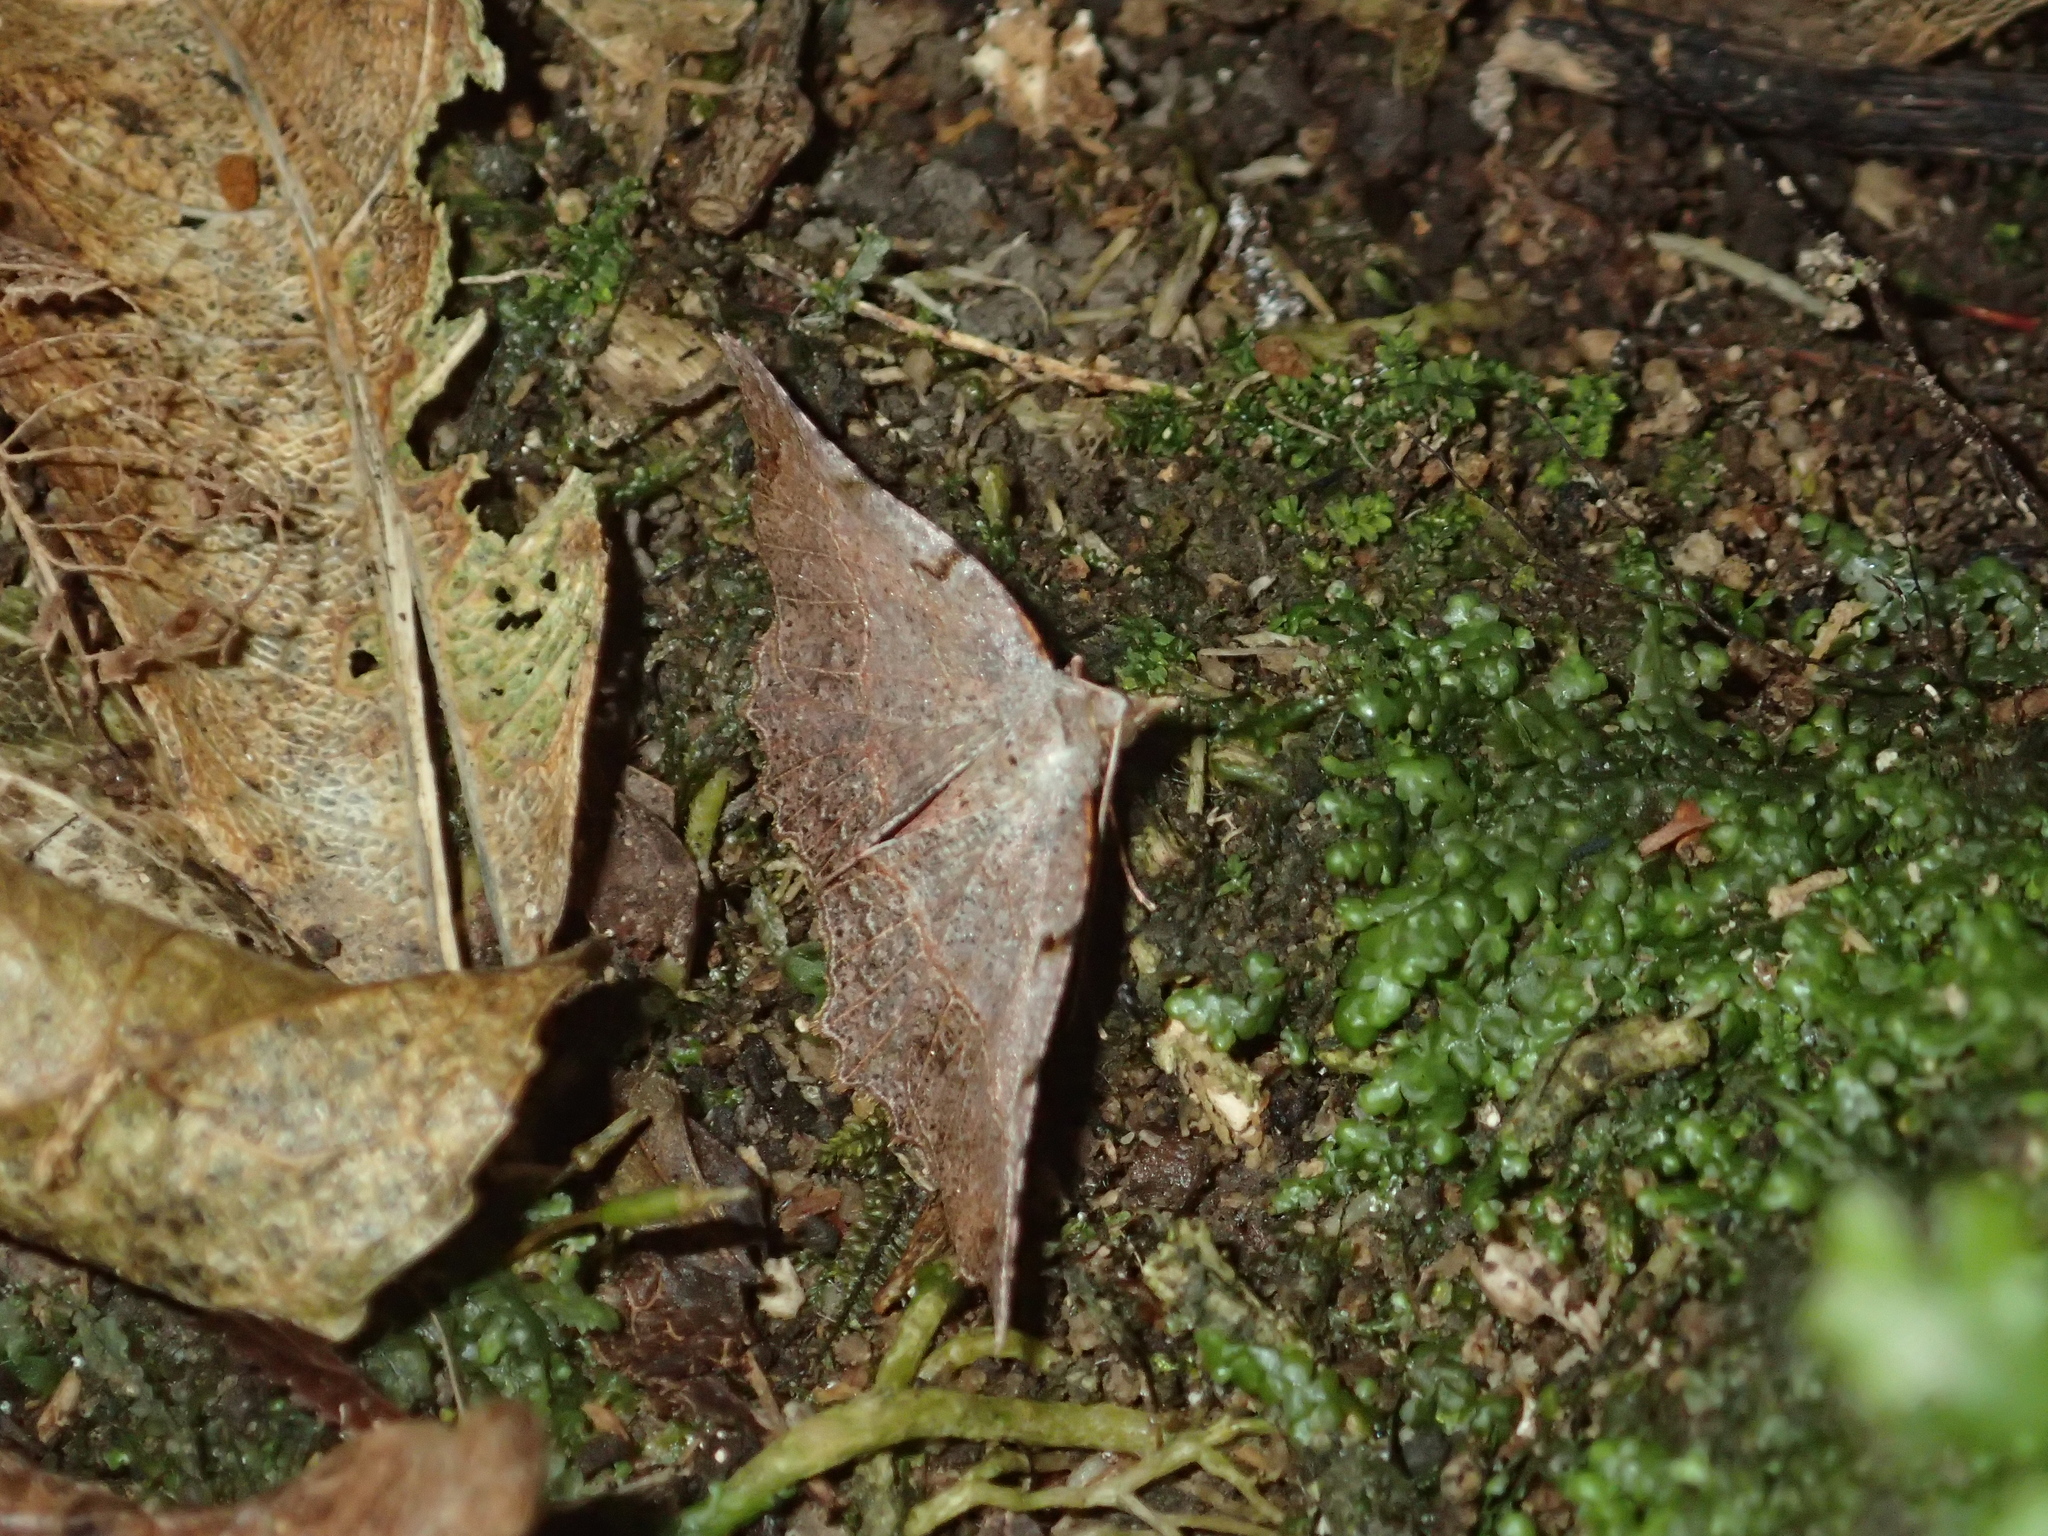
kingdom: Animalia
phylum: Arthropoda
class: Insecta
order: Lepidoptera
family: Geometridae
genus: Ischalis
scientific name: Ischalis gallaria
